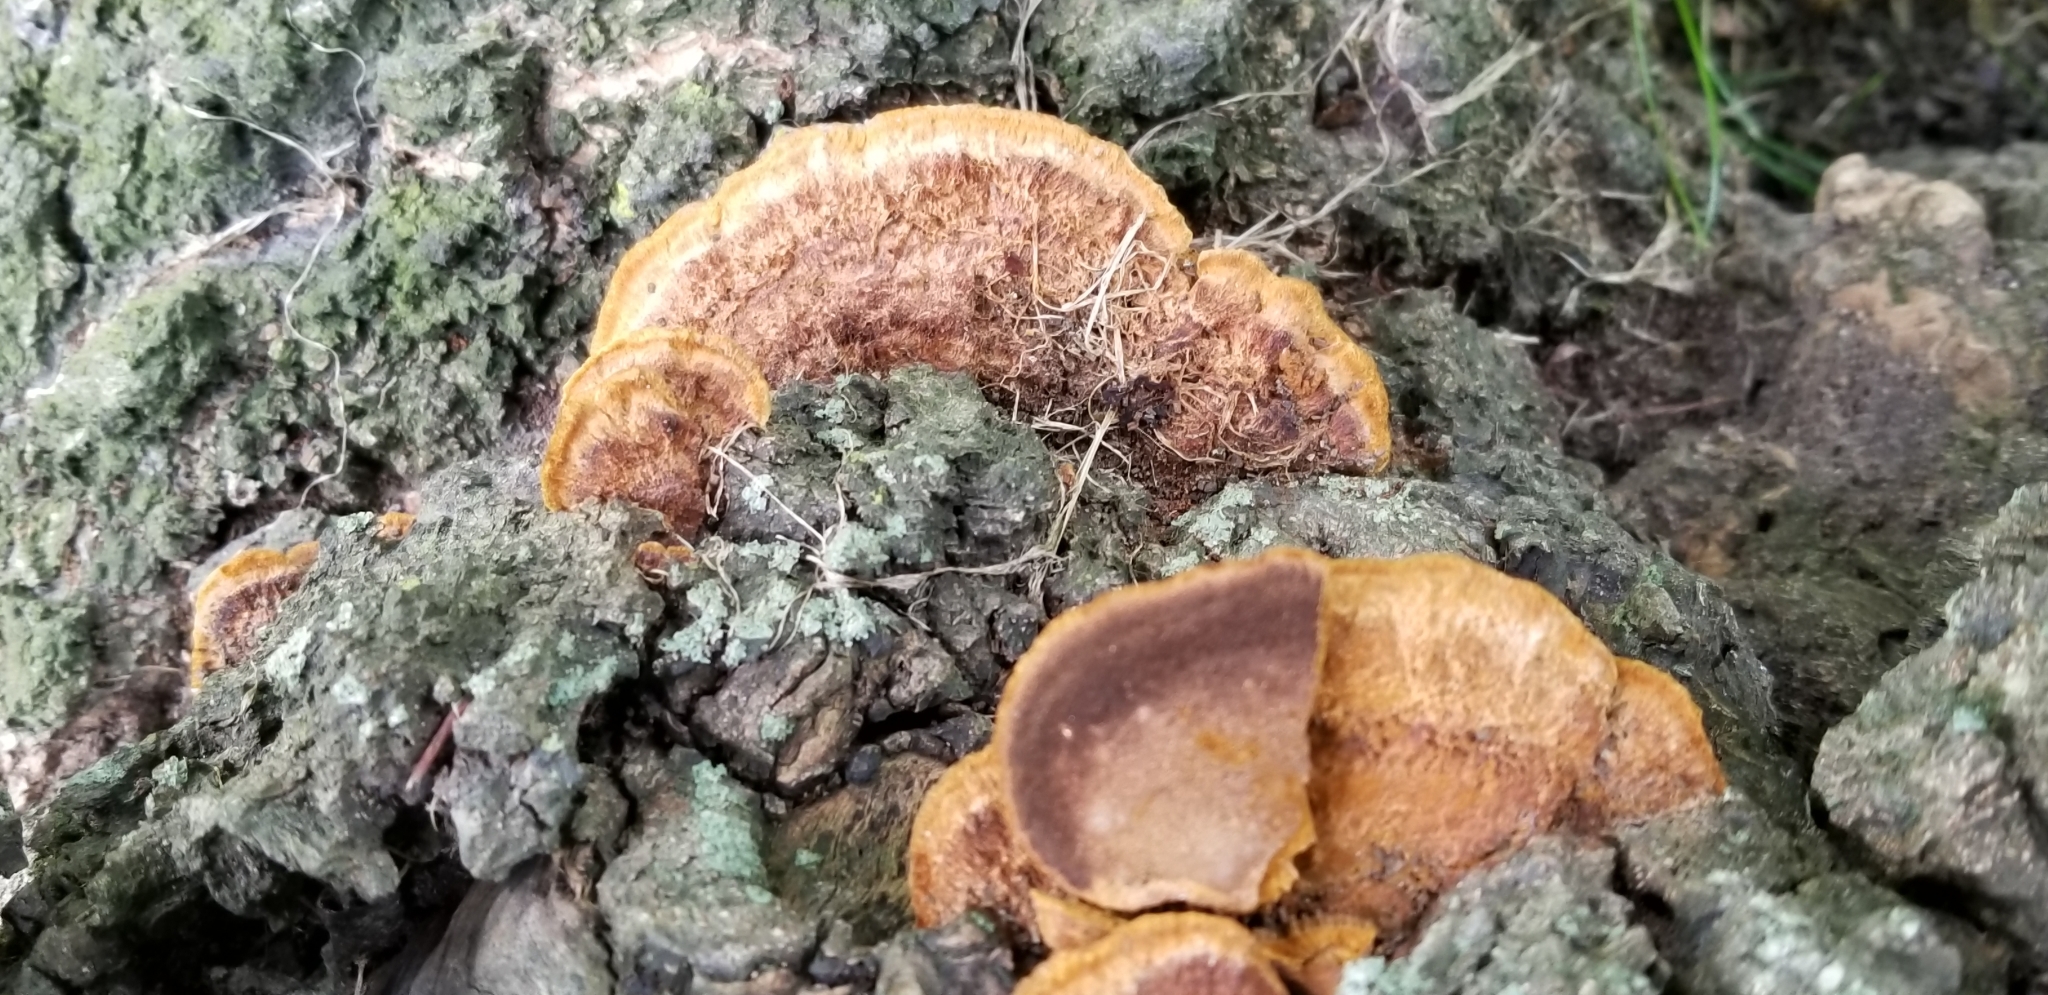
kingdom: Fungi
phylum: Basidiomycota
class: Agaricomycetes
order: Hymenochaetales
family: Hymenochaetaceae
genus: Phellinus
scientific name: Phellinus gilvus
